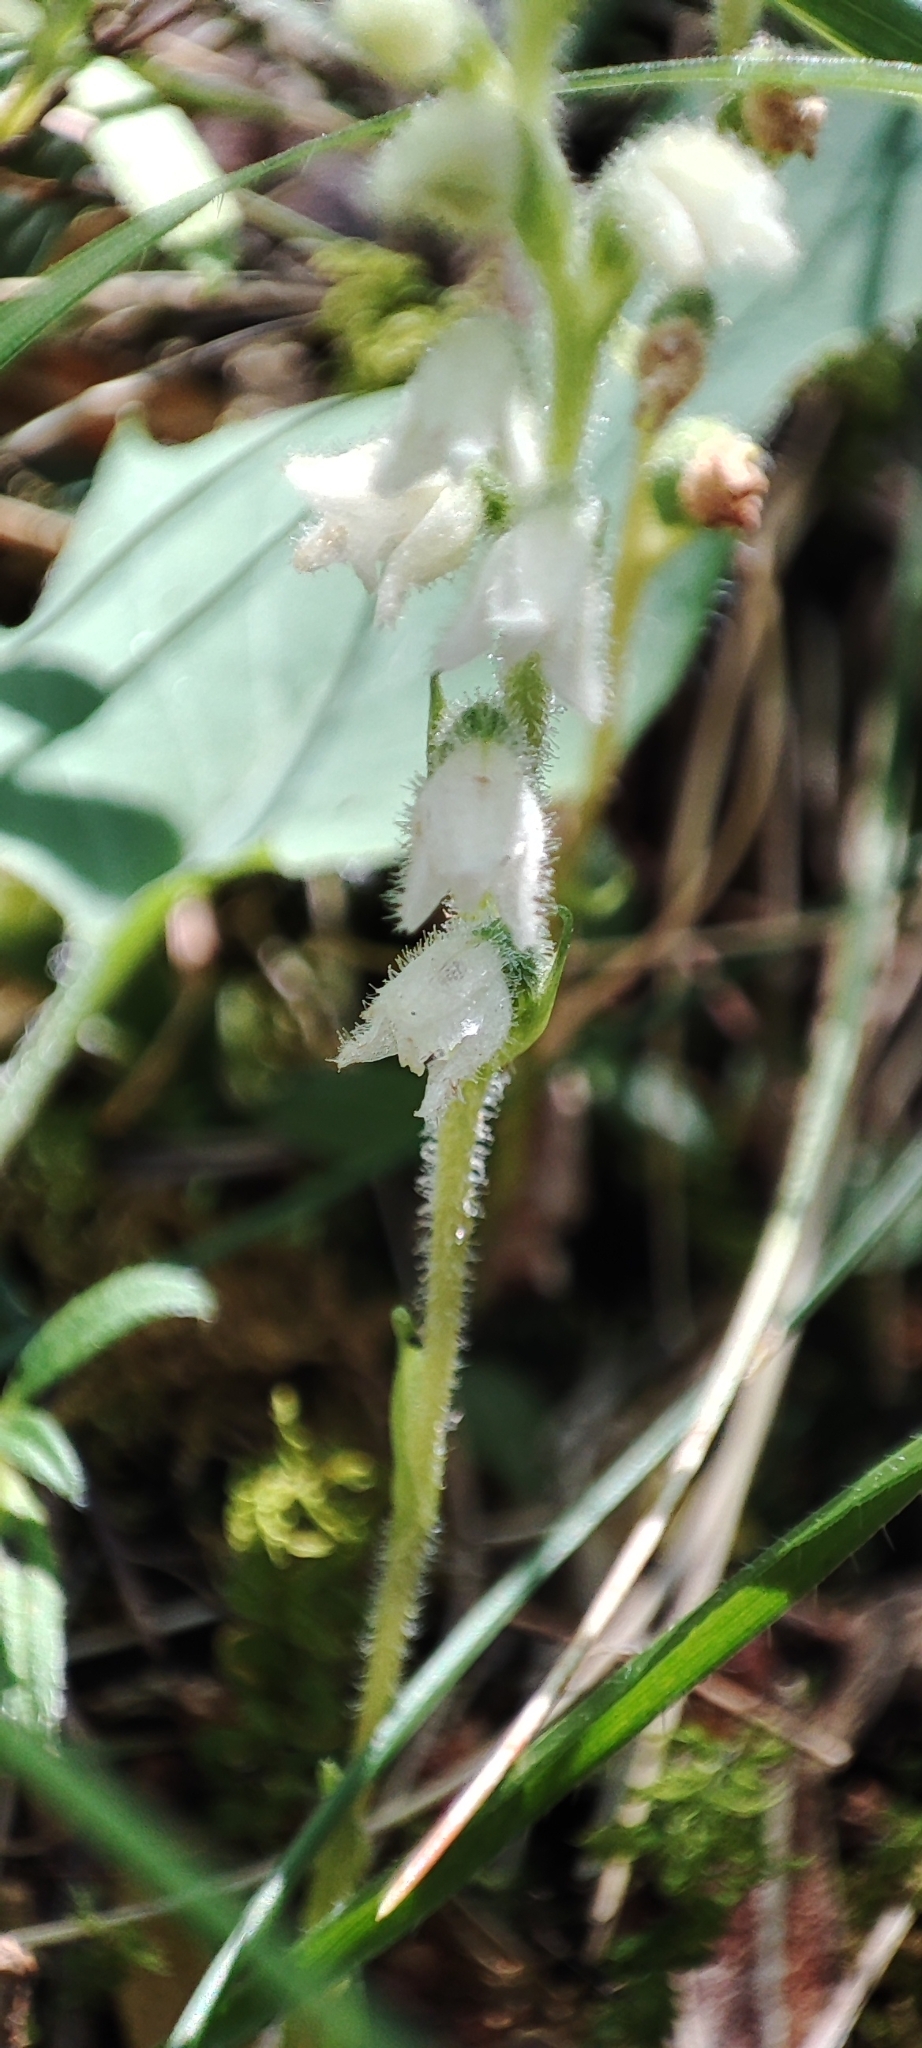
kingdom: Plantae
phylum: Tracheophyta
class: Liliopsida
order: Asparagales
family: Orchidaceae
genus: Goodyera
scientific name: Goodyera repens
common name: Creeping lady's-tresses
